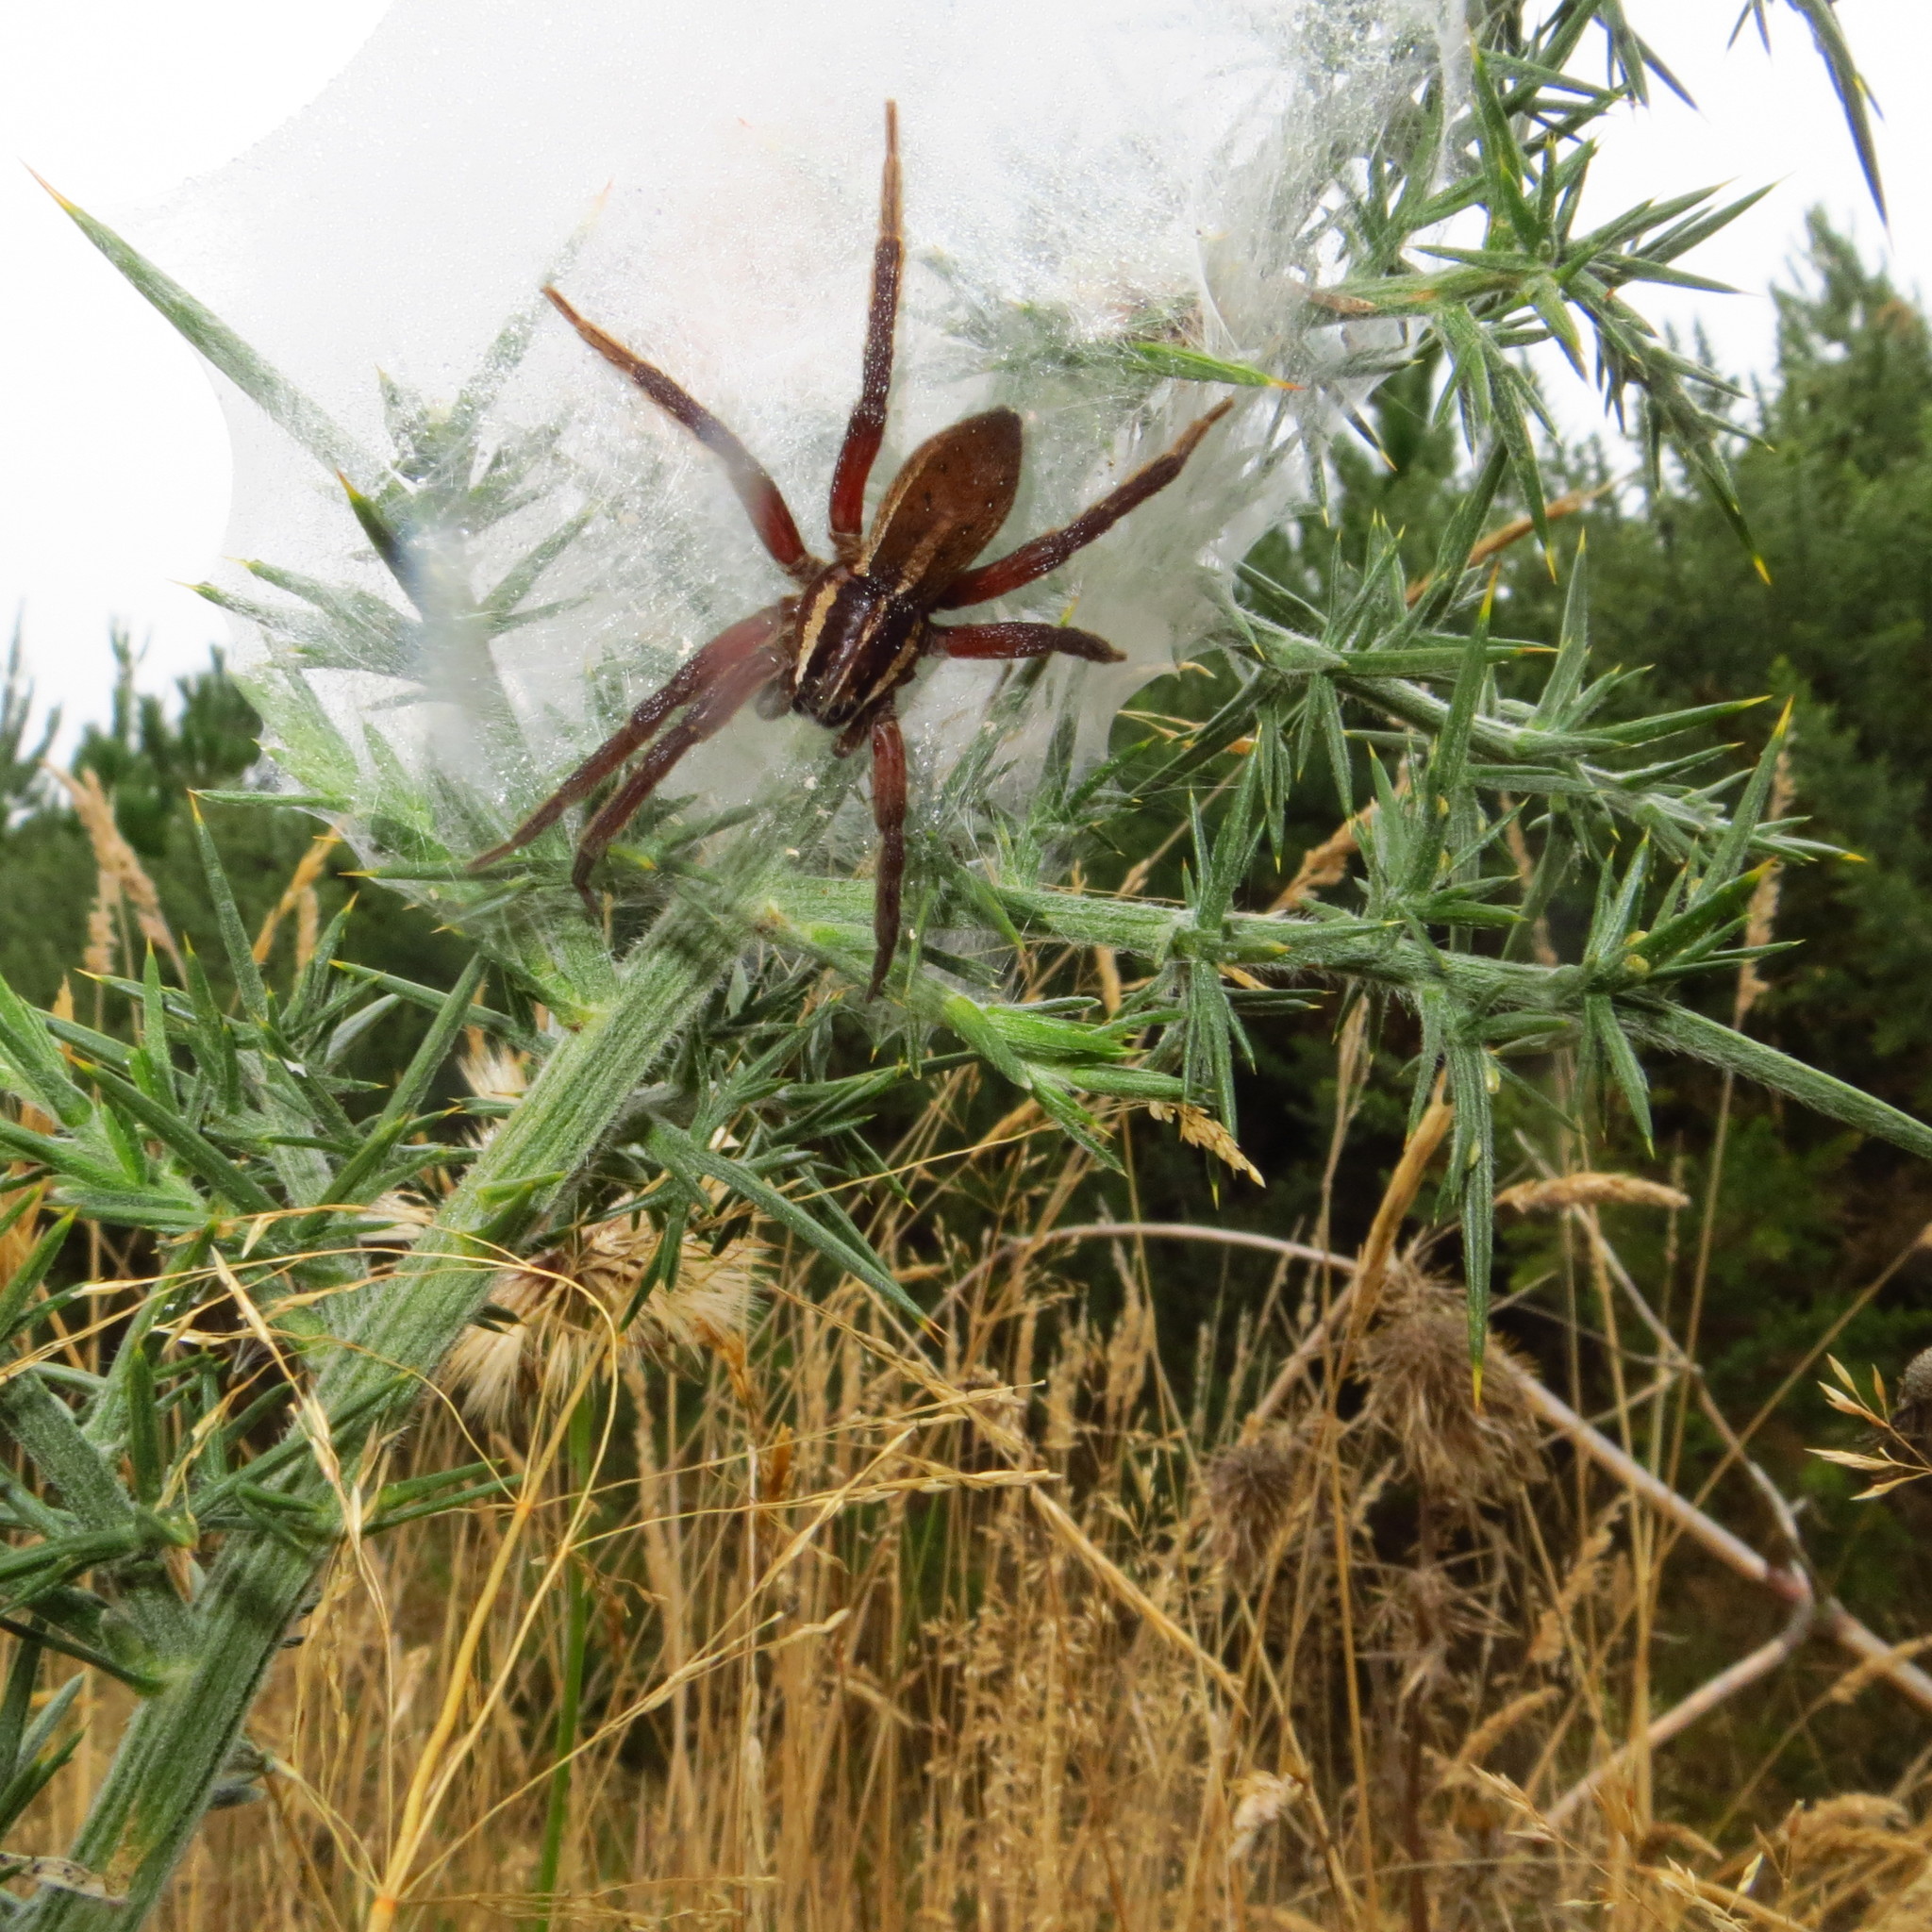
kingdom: Animalia
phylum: Arthropoda
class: Arachnida
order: Araneae
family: Pisauridae
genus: Dolomedes
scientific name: Dolomedes minor
